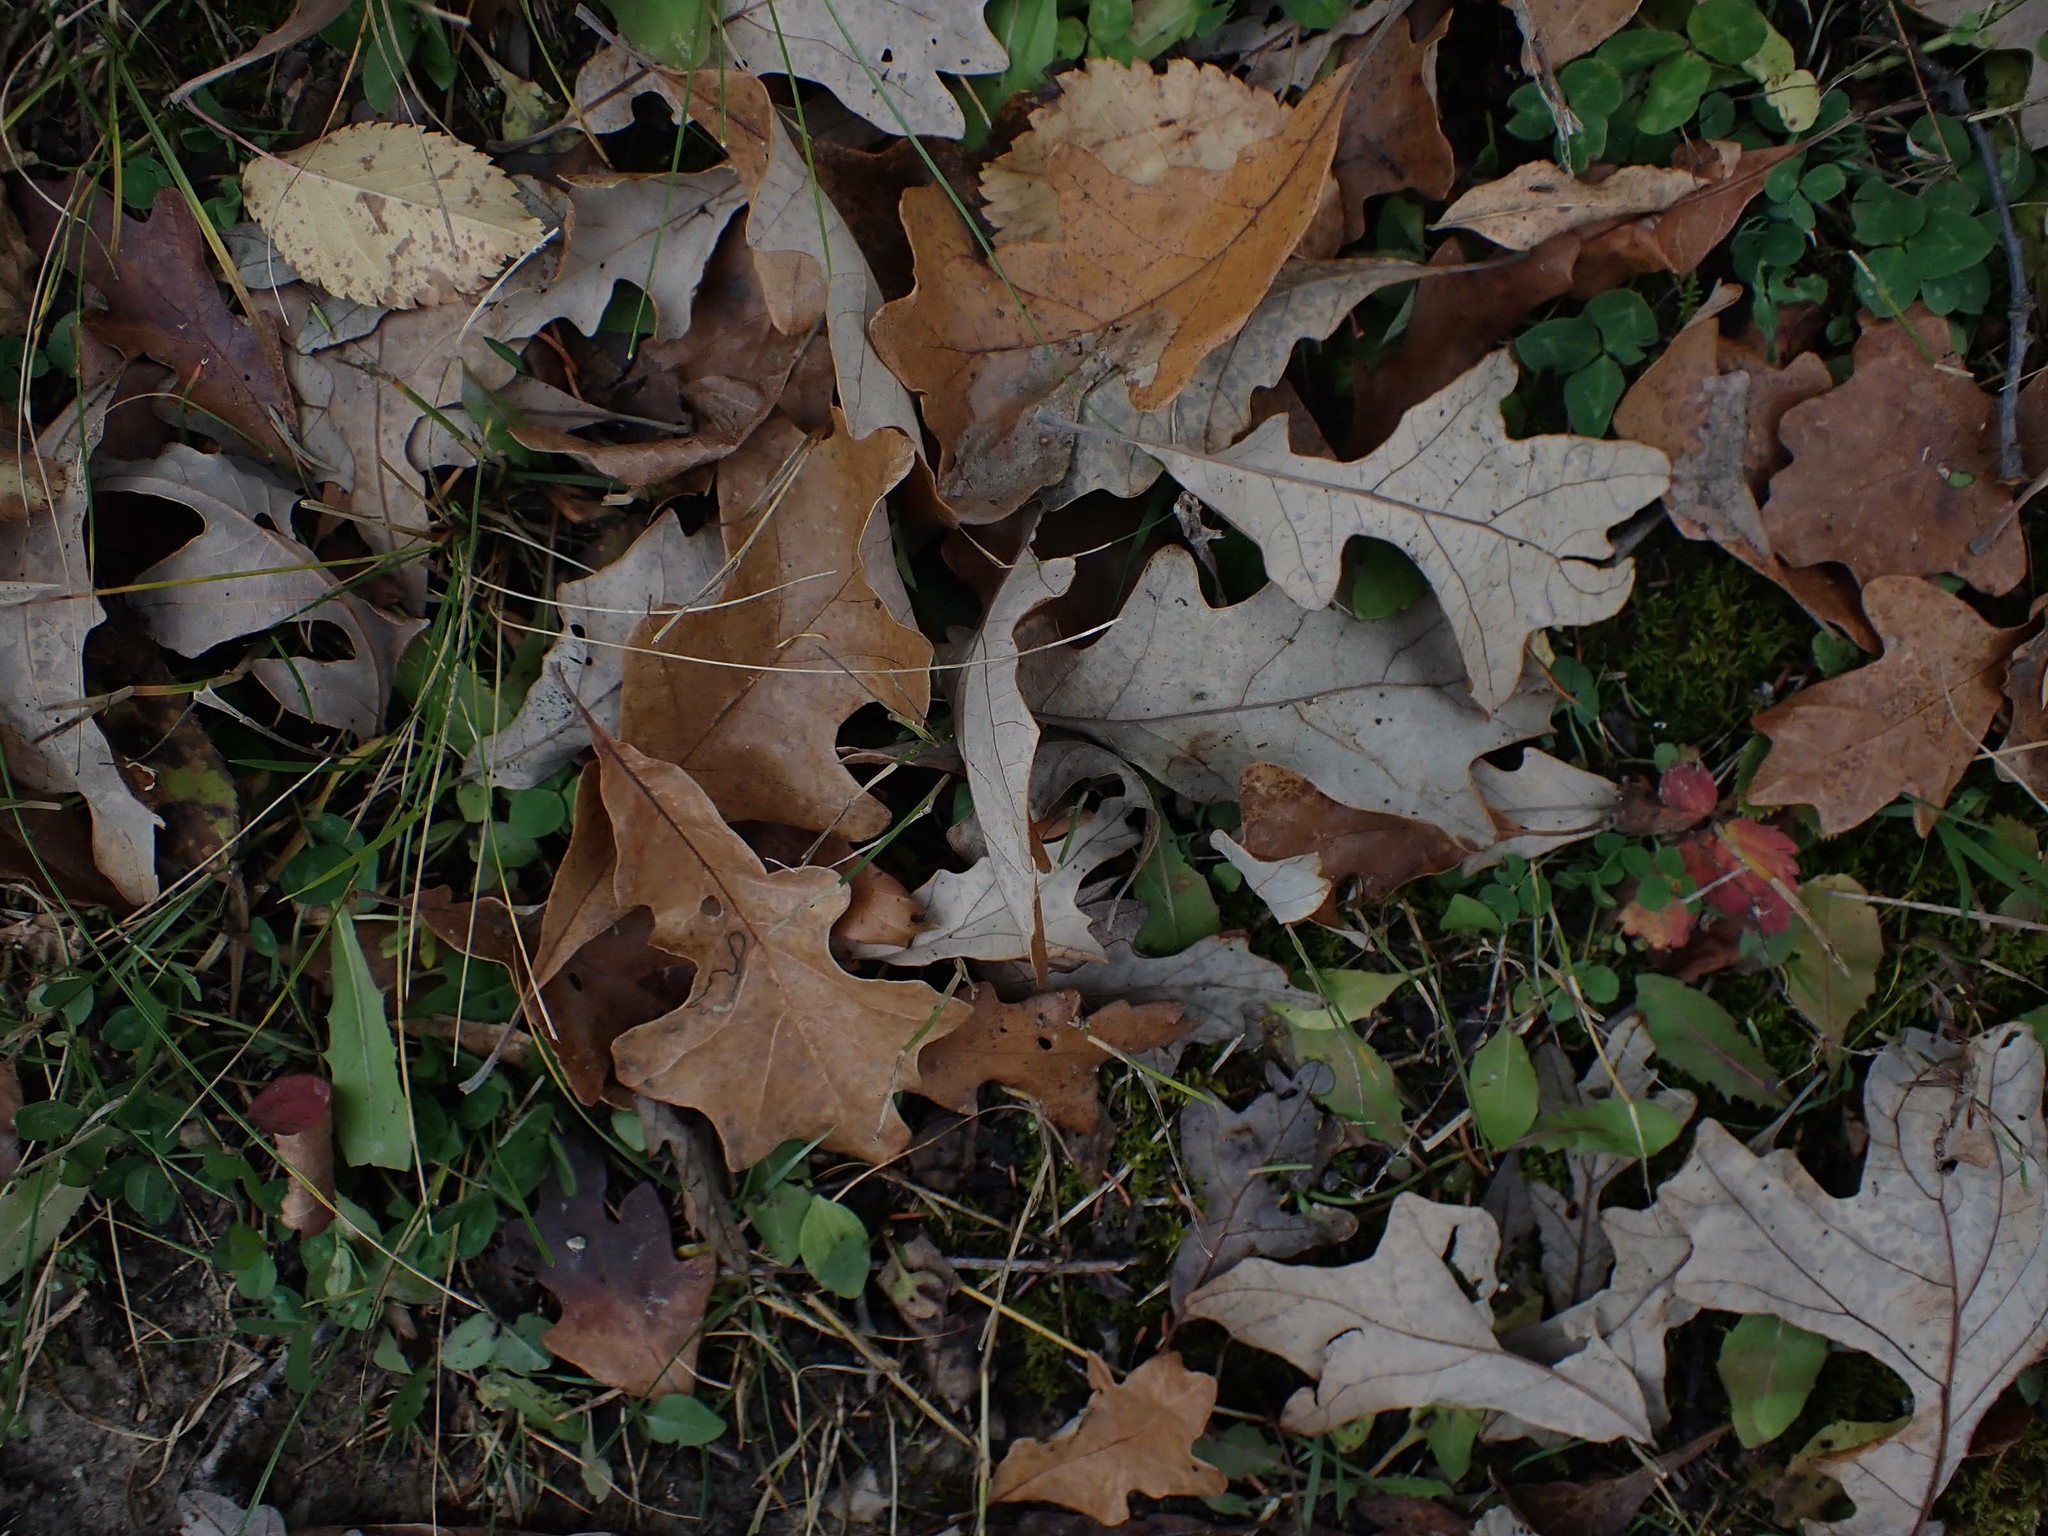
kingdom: Plantae
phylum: Tracheophyta
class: Magnoliopsida
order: Fagales
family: Fagaceae
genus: Quercus
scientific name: Quercus macrocarpa
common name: Bur oak
